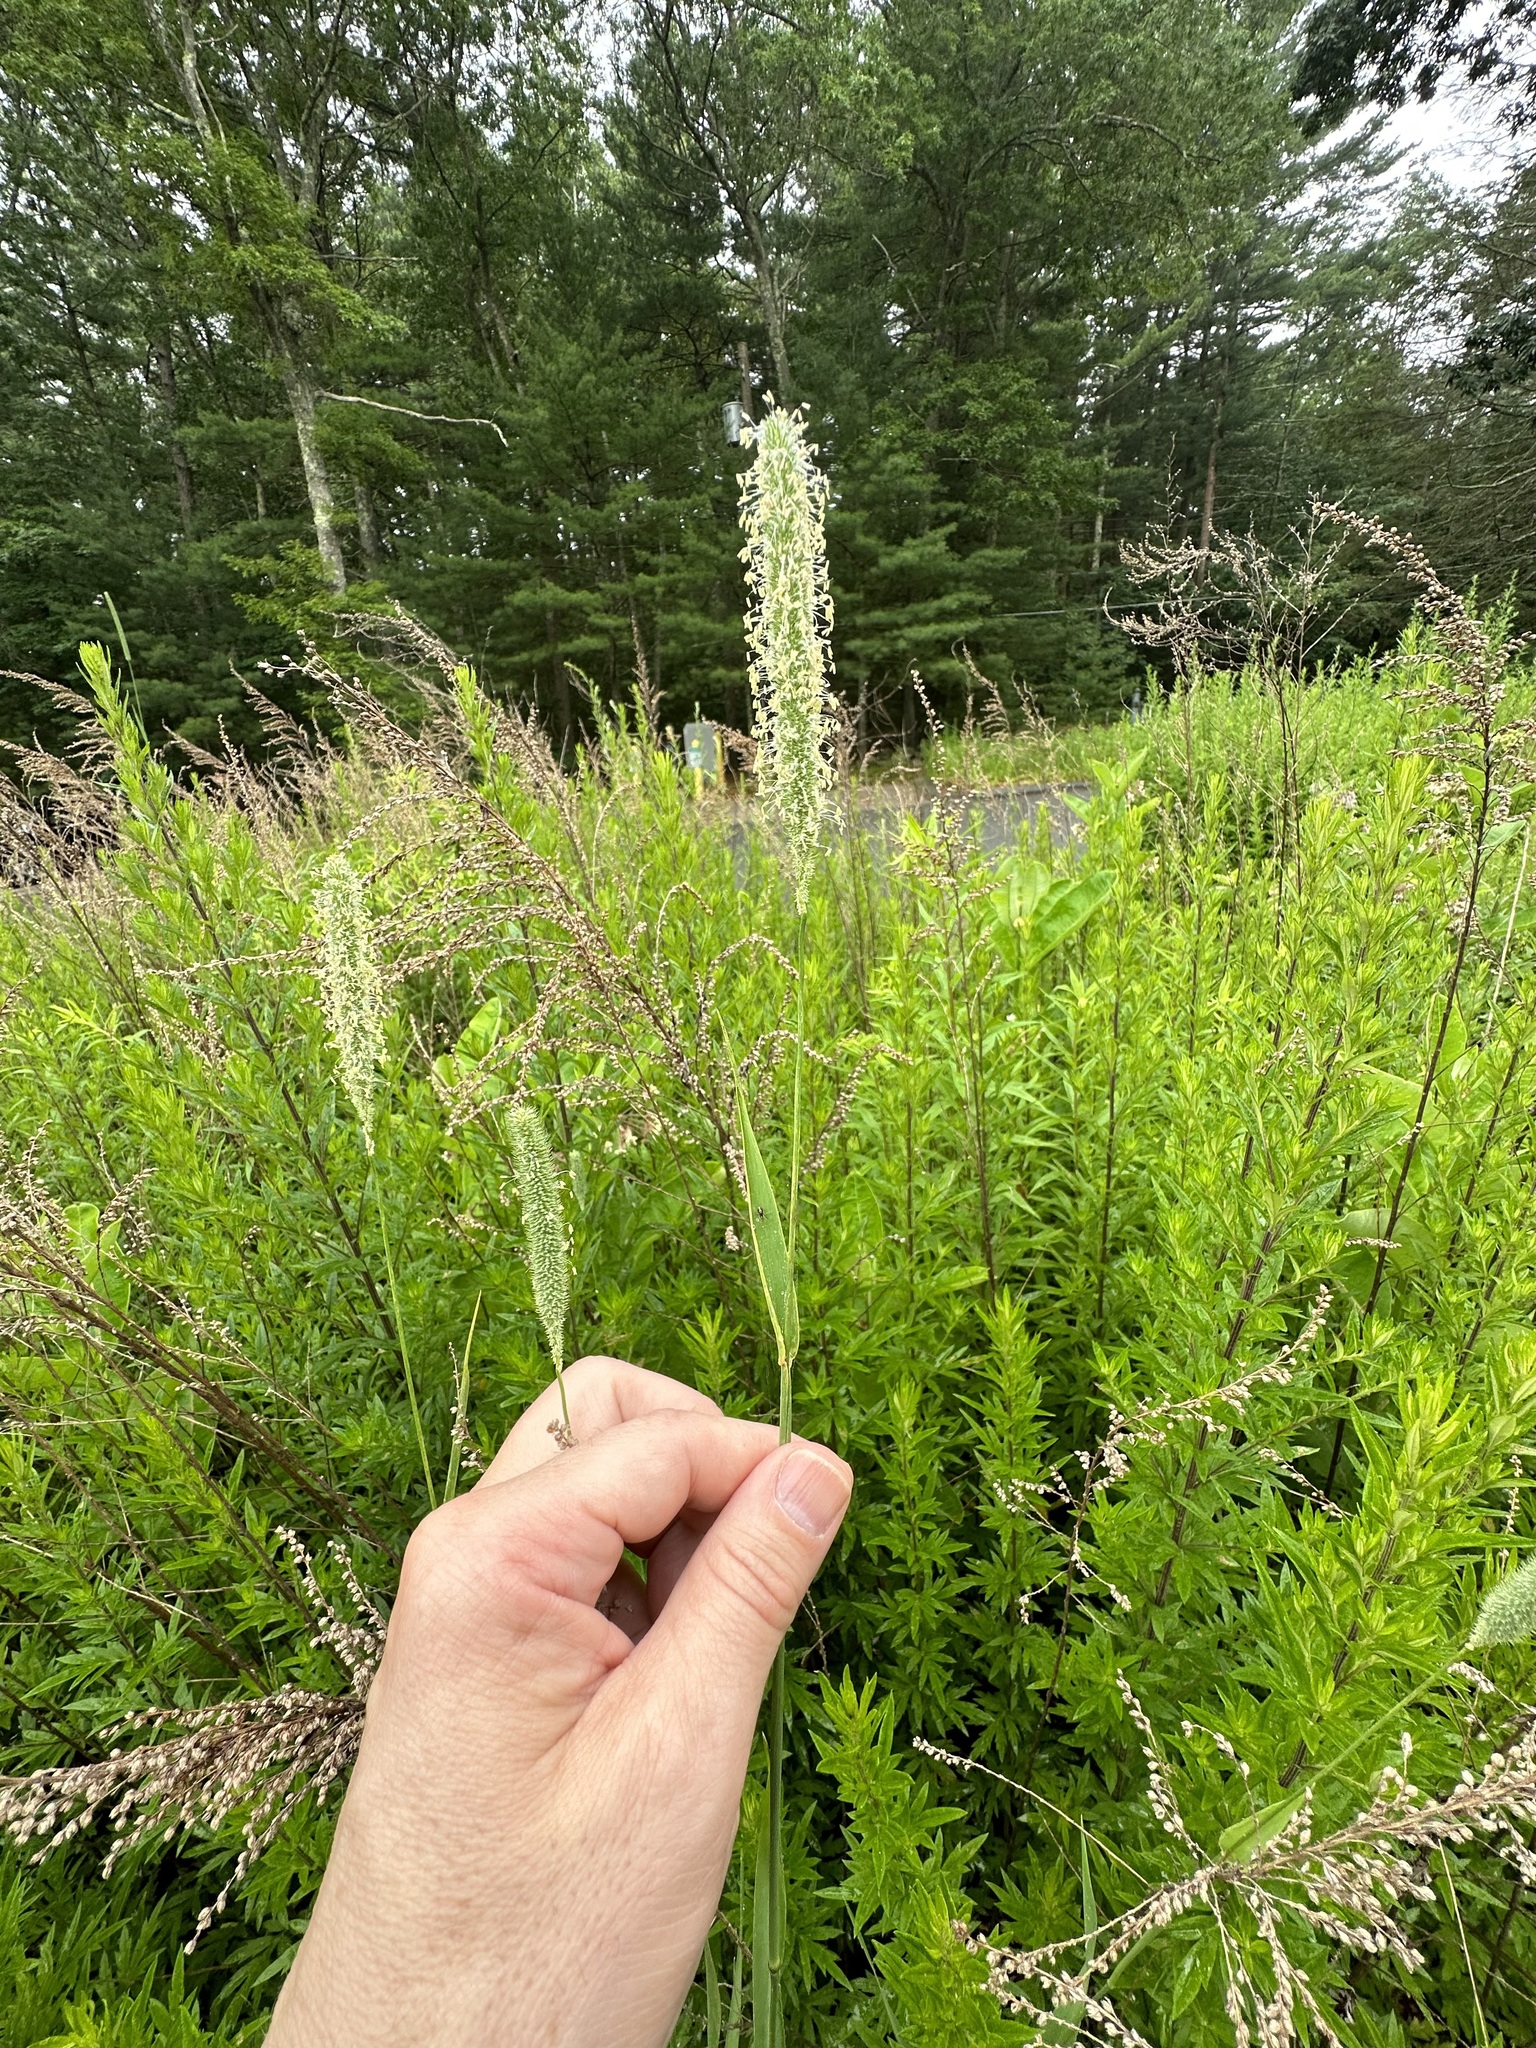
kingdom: Plantae
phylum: Tracheophyta
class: Liliopsida
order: Poales
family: Poaceae
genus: Phleum
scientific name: Phleum pratense
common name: Timothy grass
